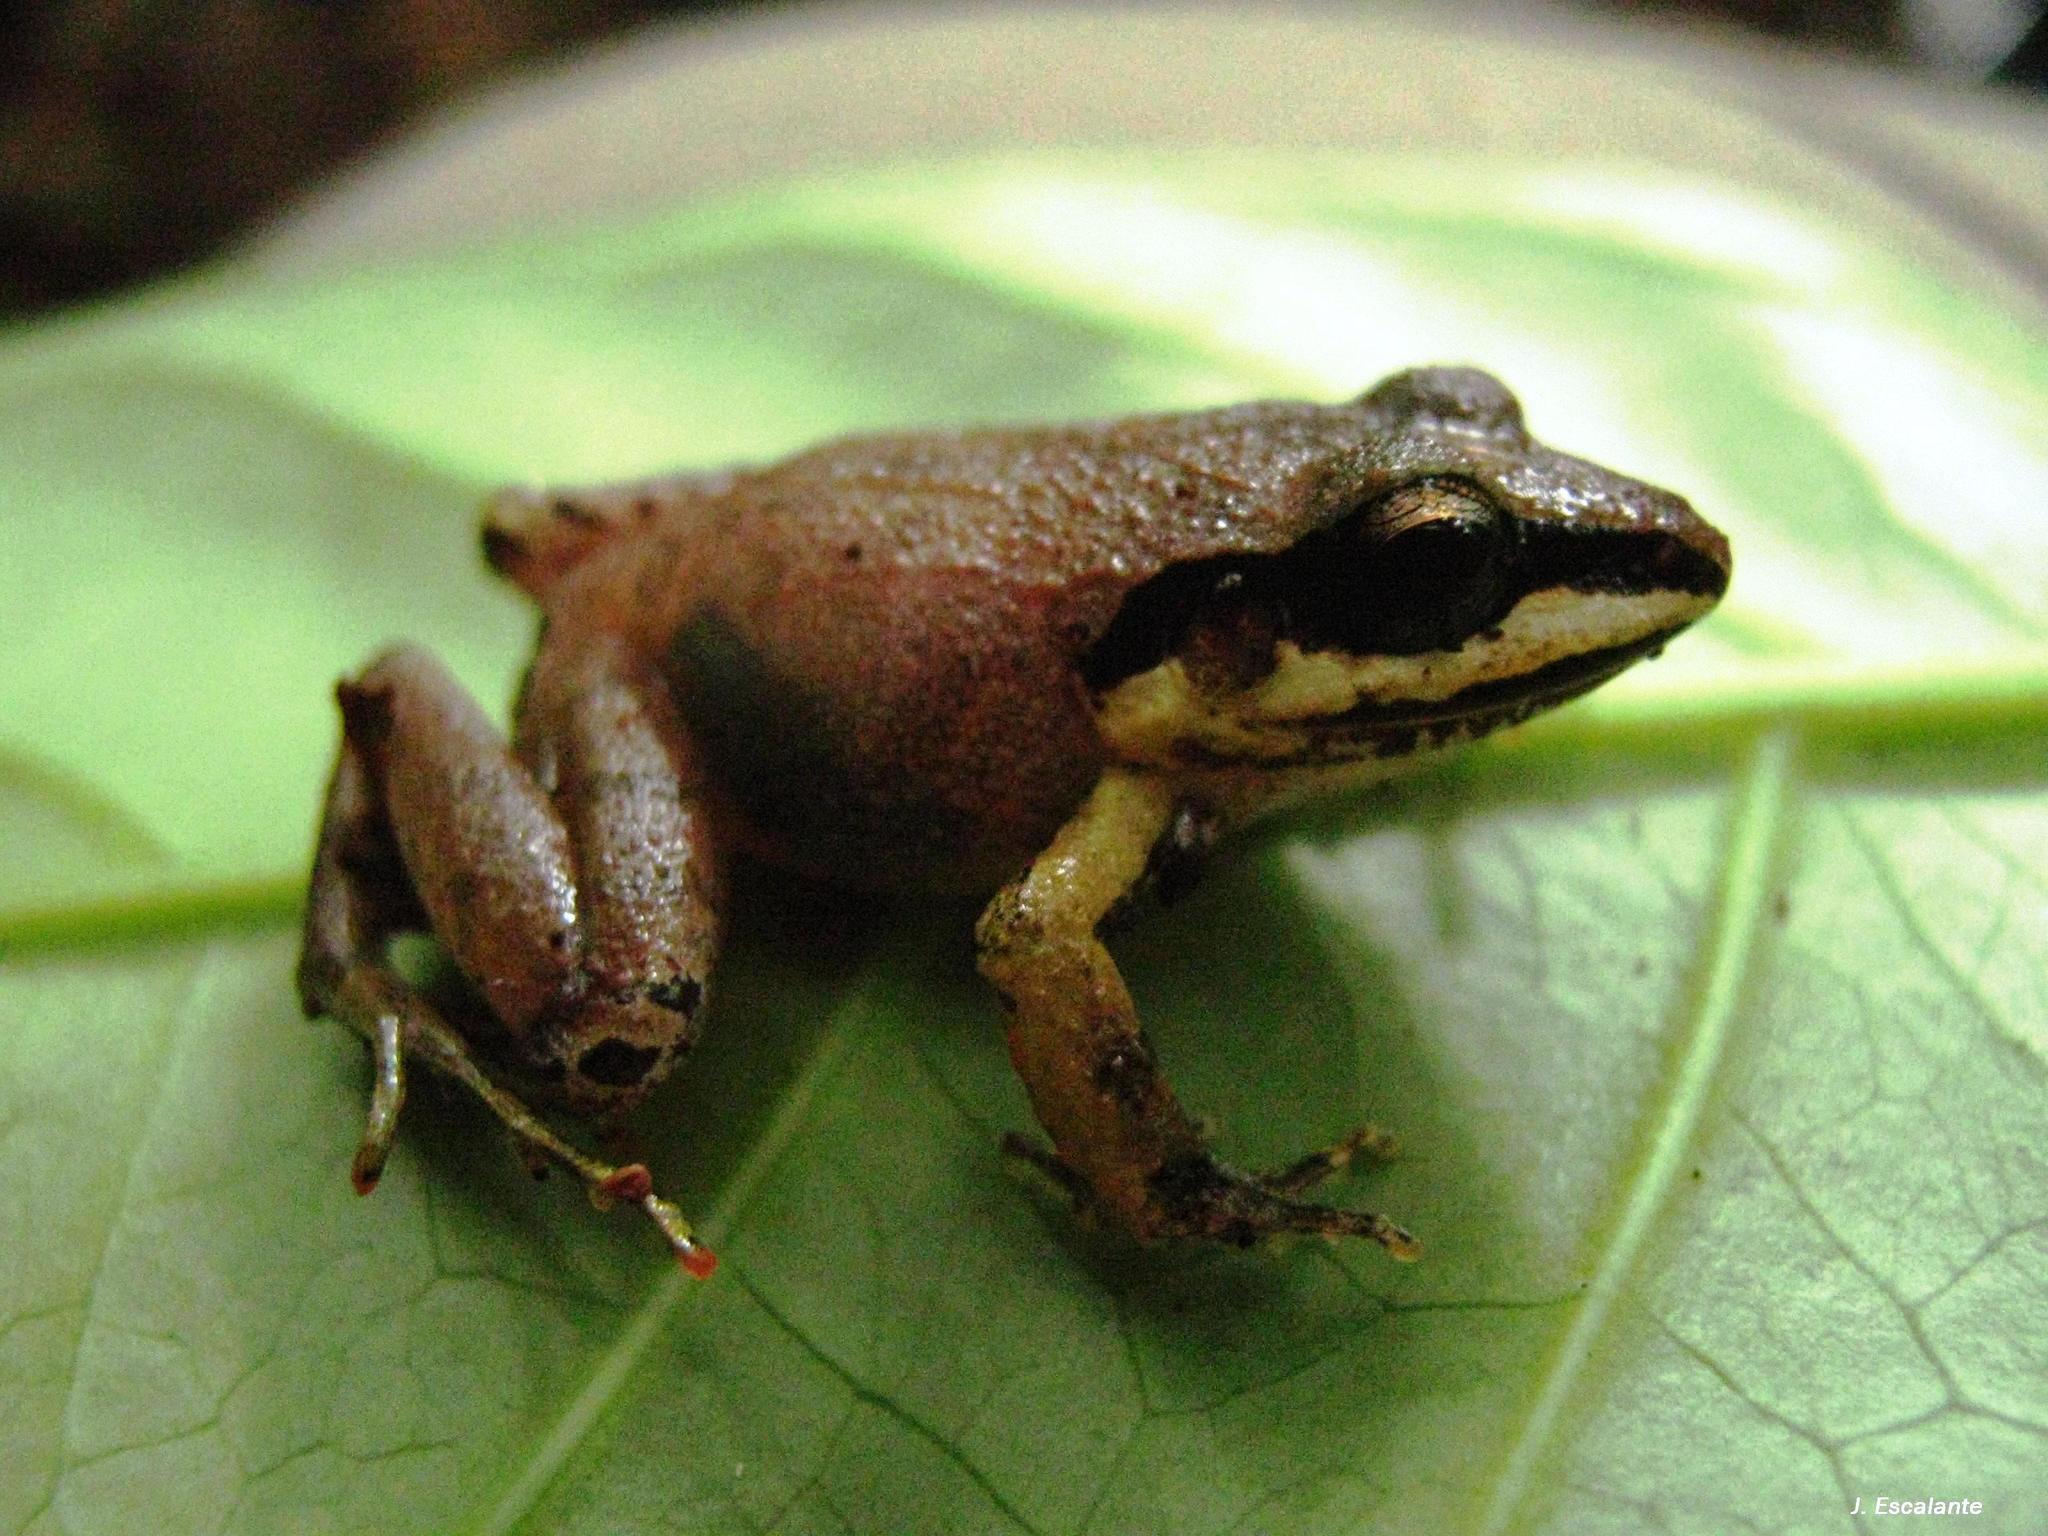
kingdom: Animalia
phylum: Chordata
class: Amphibia
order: Anura
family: Craugastoridae
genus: Craugastor
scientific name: Craugastor loki
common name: Common leaf-litter frog
